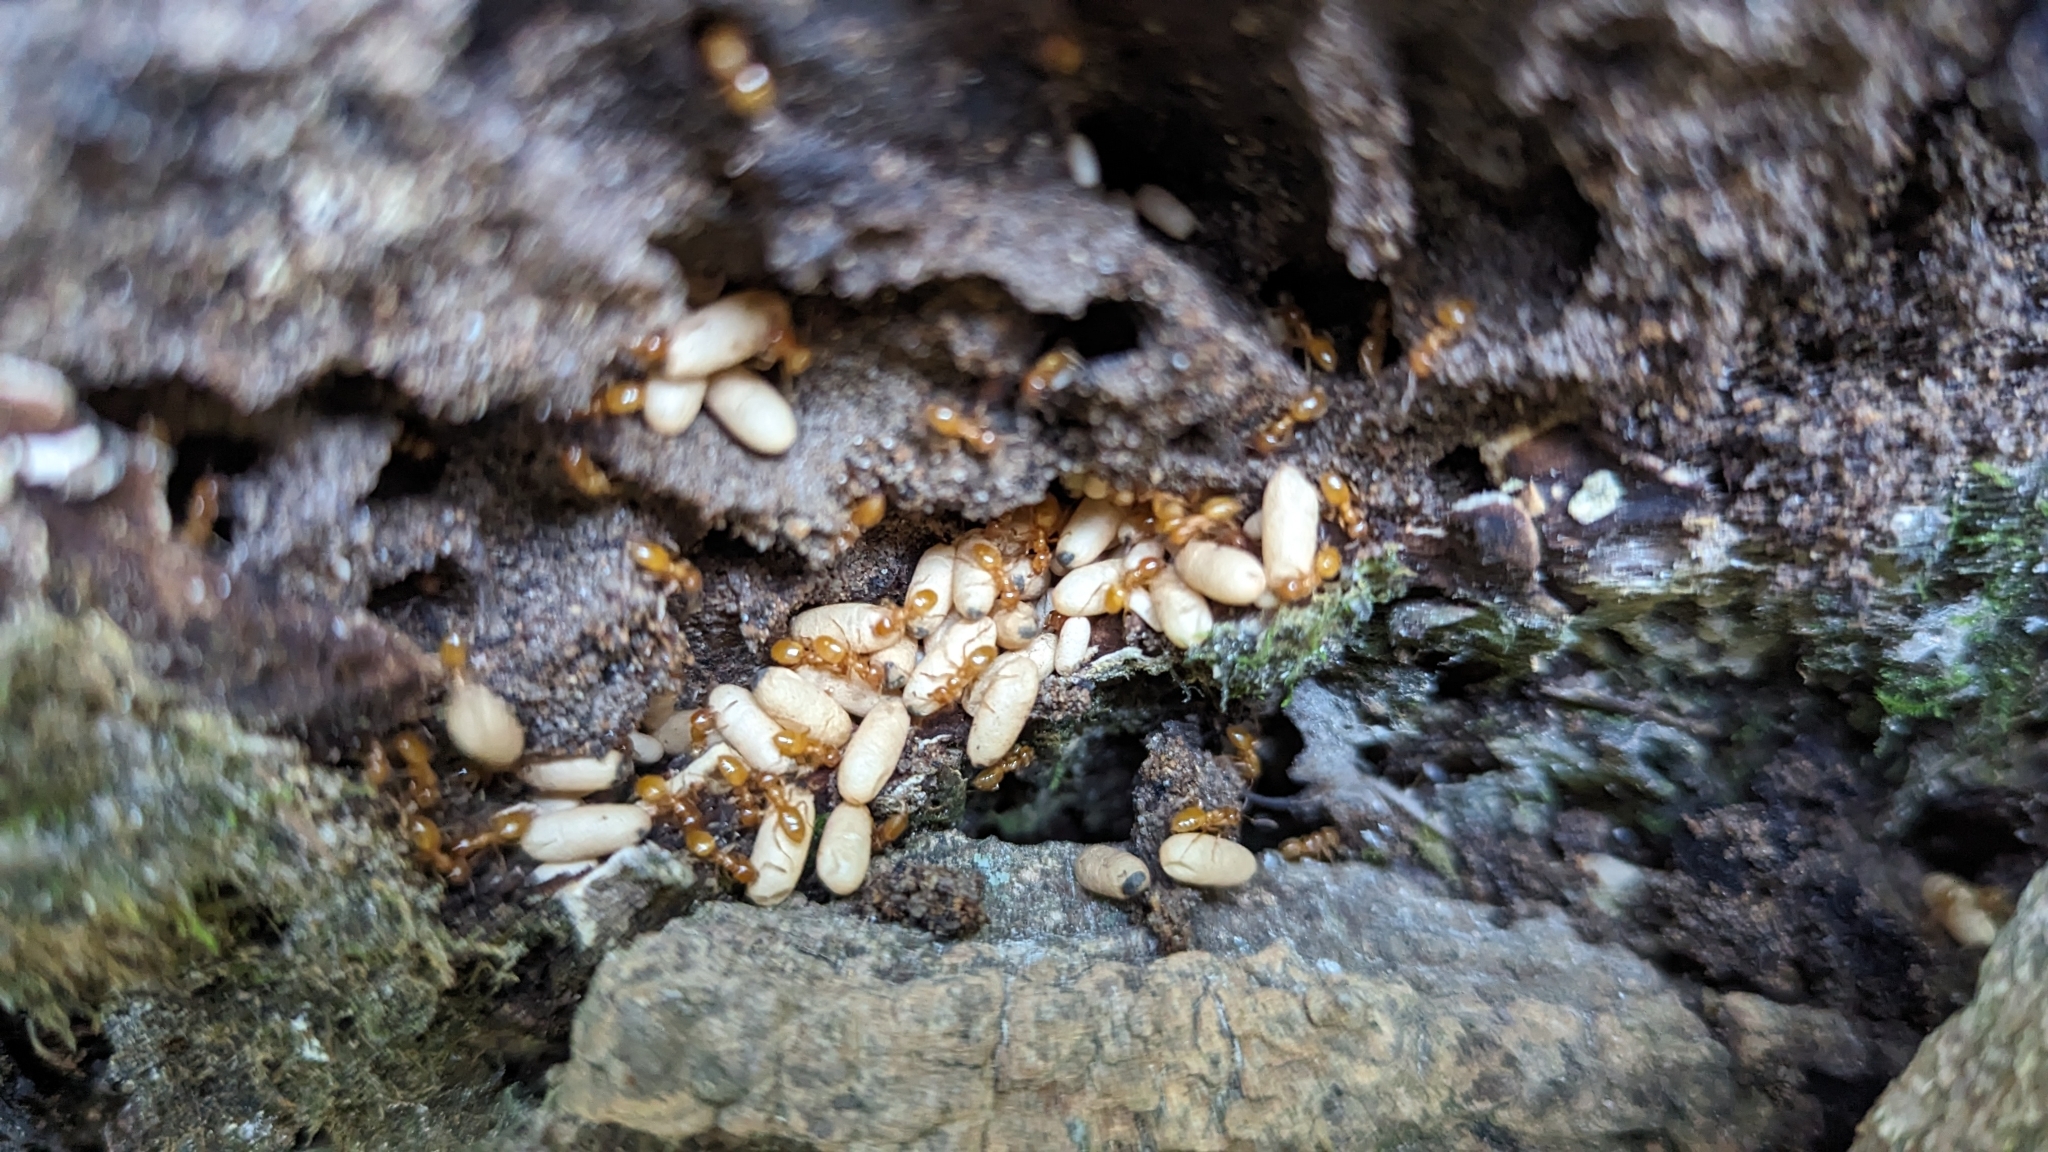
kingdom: Animalia
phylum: Arthropoda
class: Insecta
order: Hymenoptera
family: Formicidae
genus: Lasius
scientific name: Lasius claviger
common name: Common citronella ant
